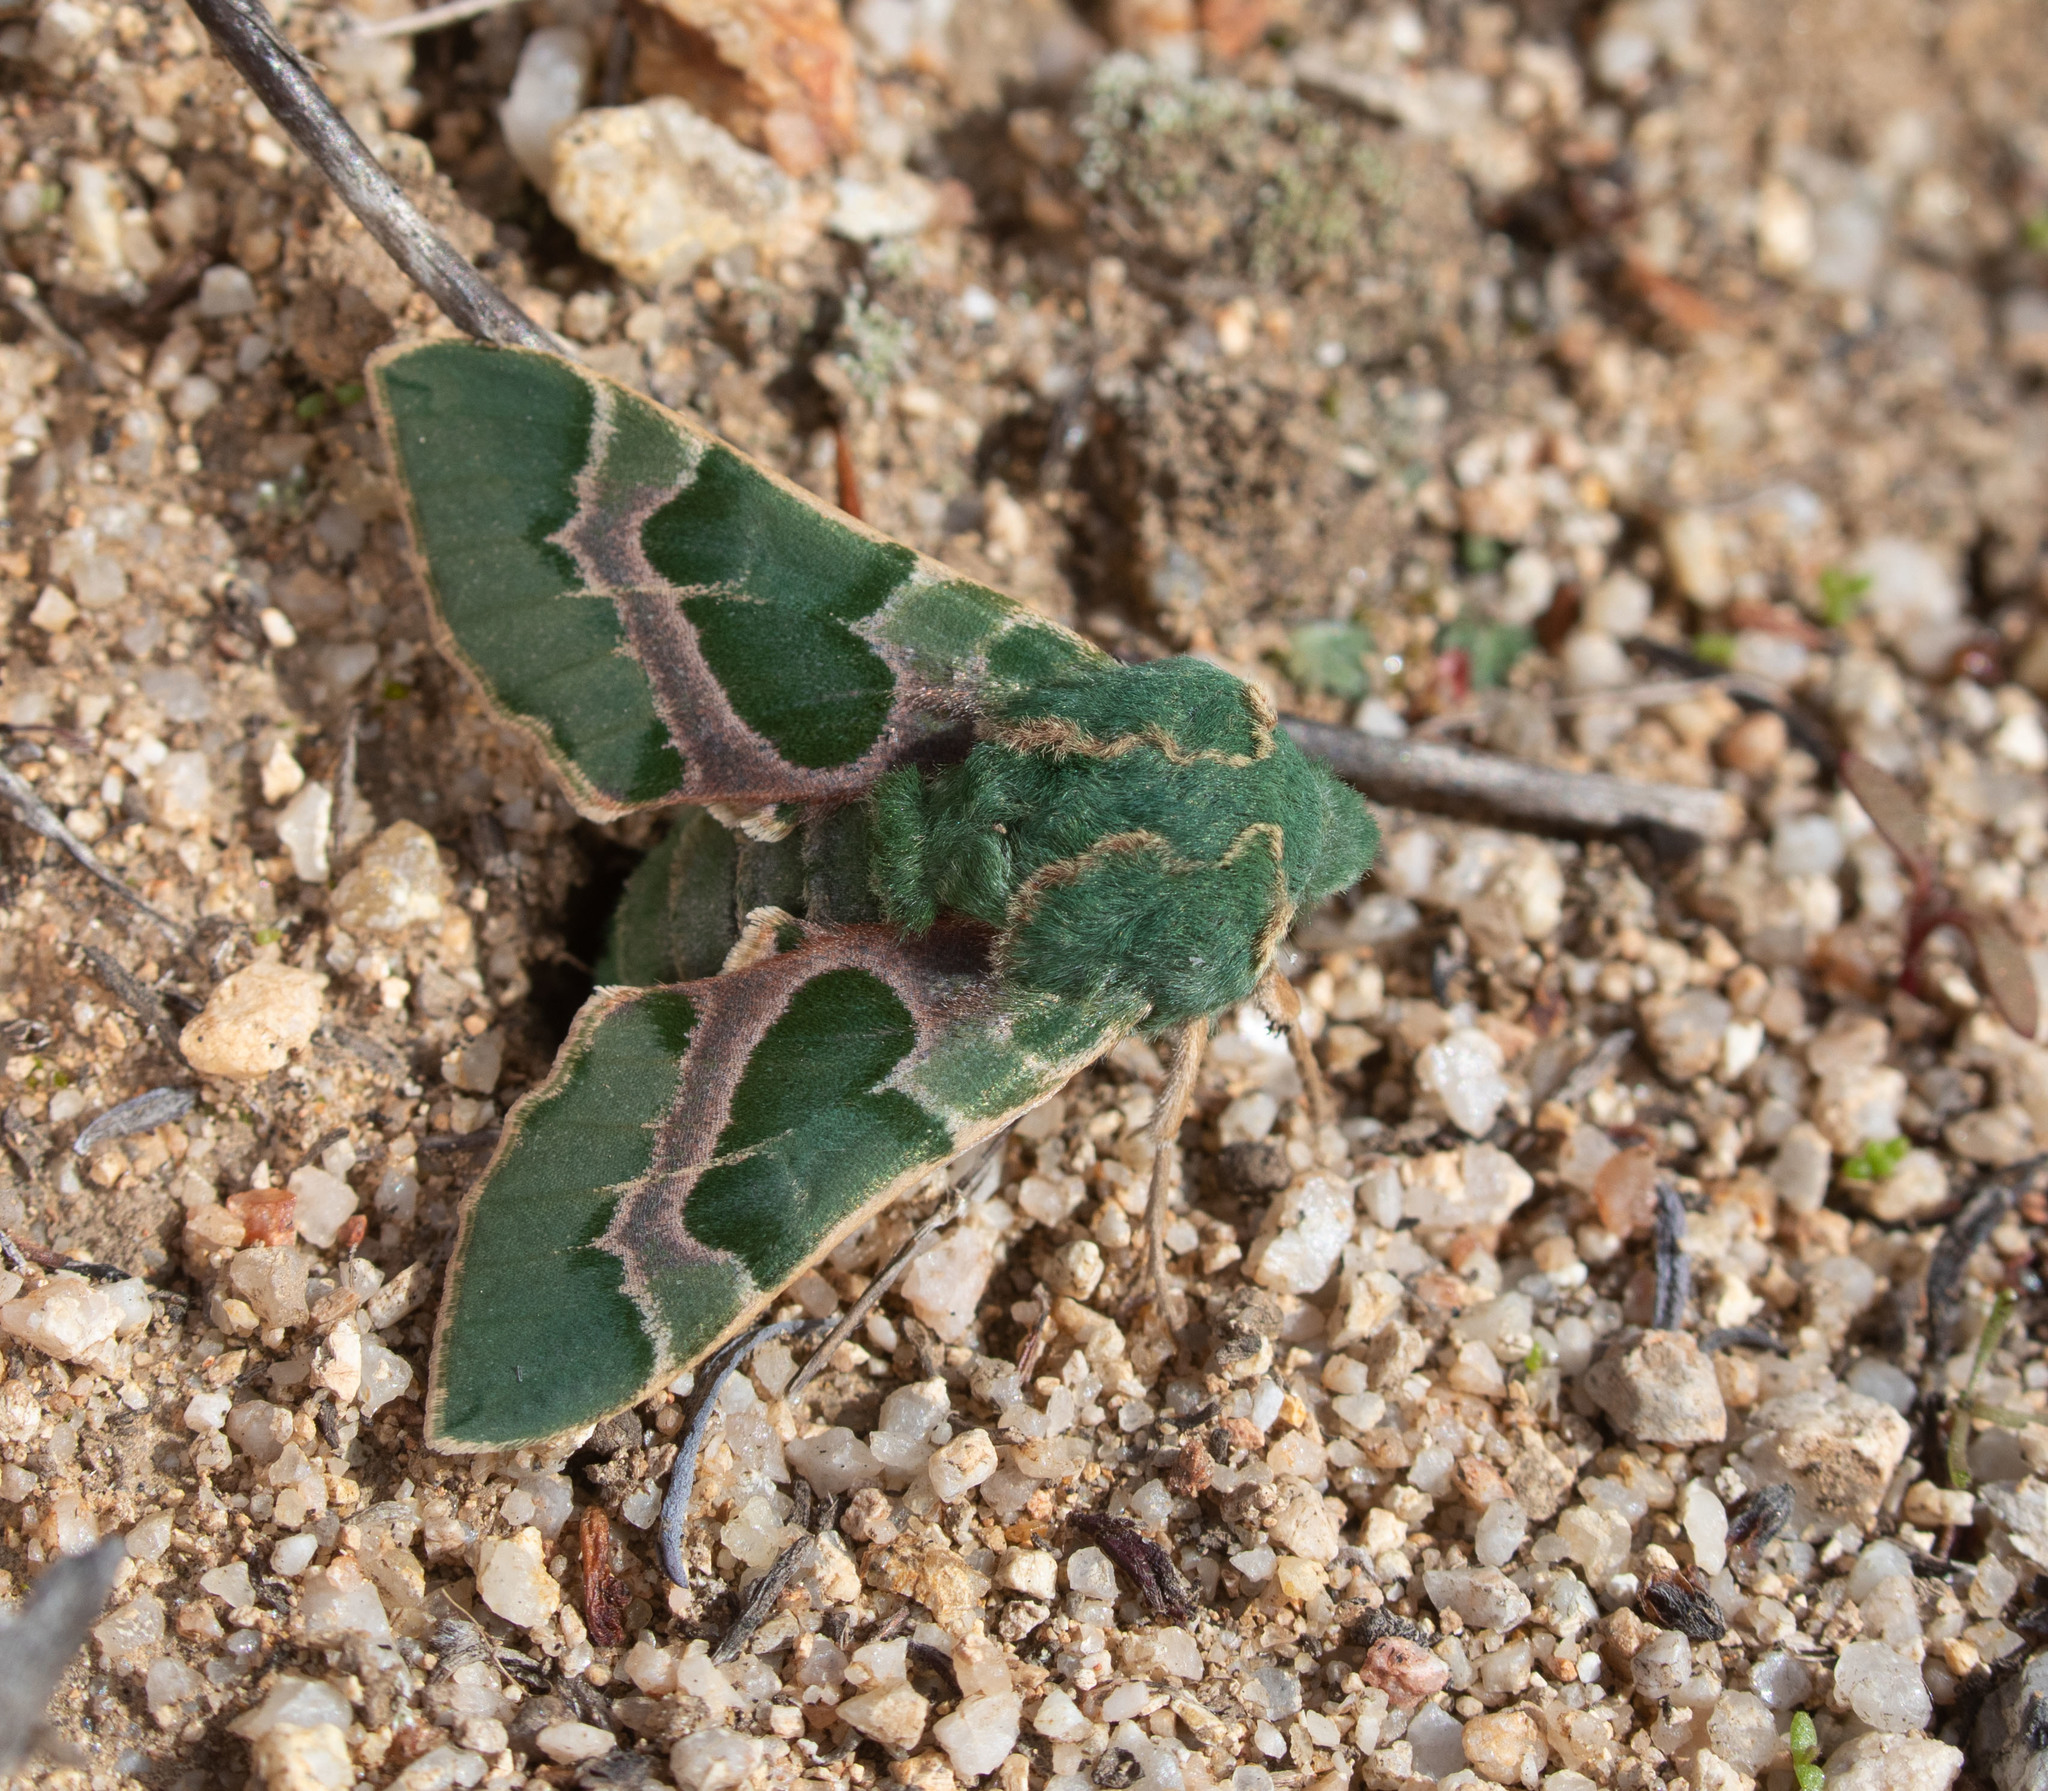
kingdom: Animalia
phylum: Arthropoda
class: Insecta
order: Lepidoptera
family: Sphingidae
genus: Proserpinus
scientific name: Proserpinus lucidus
